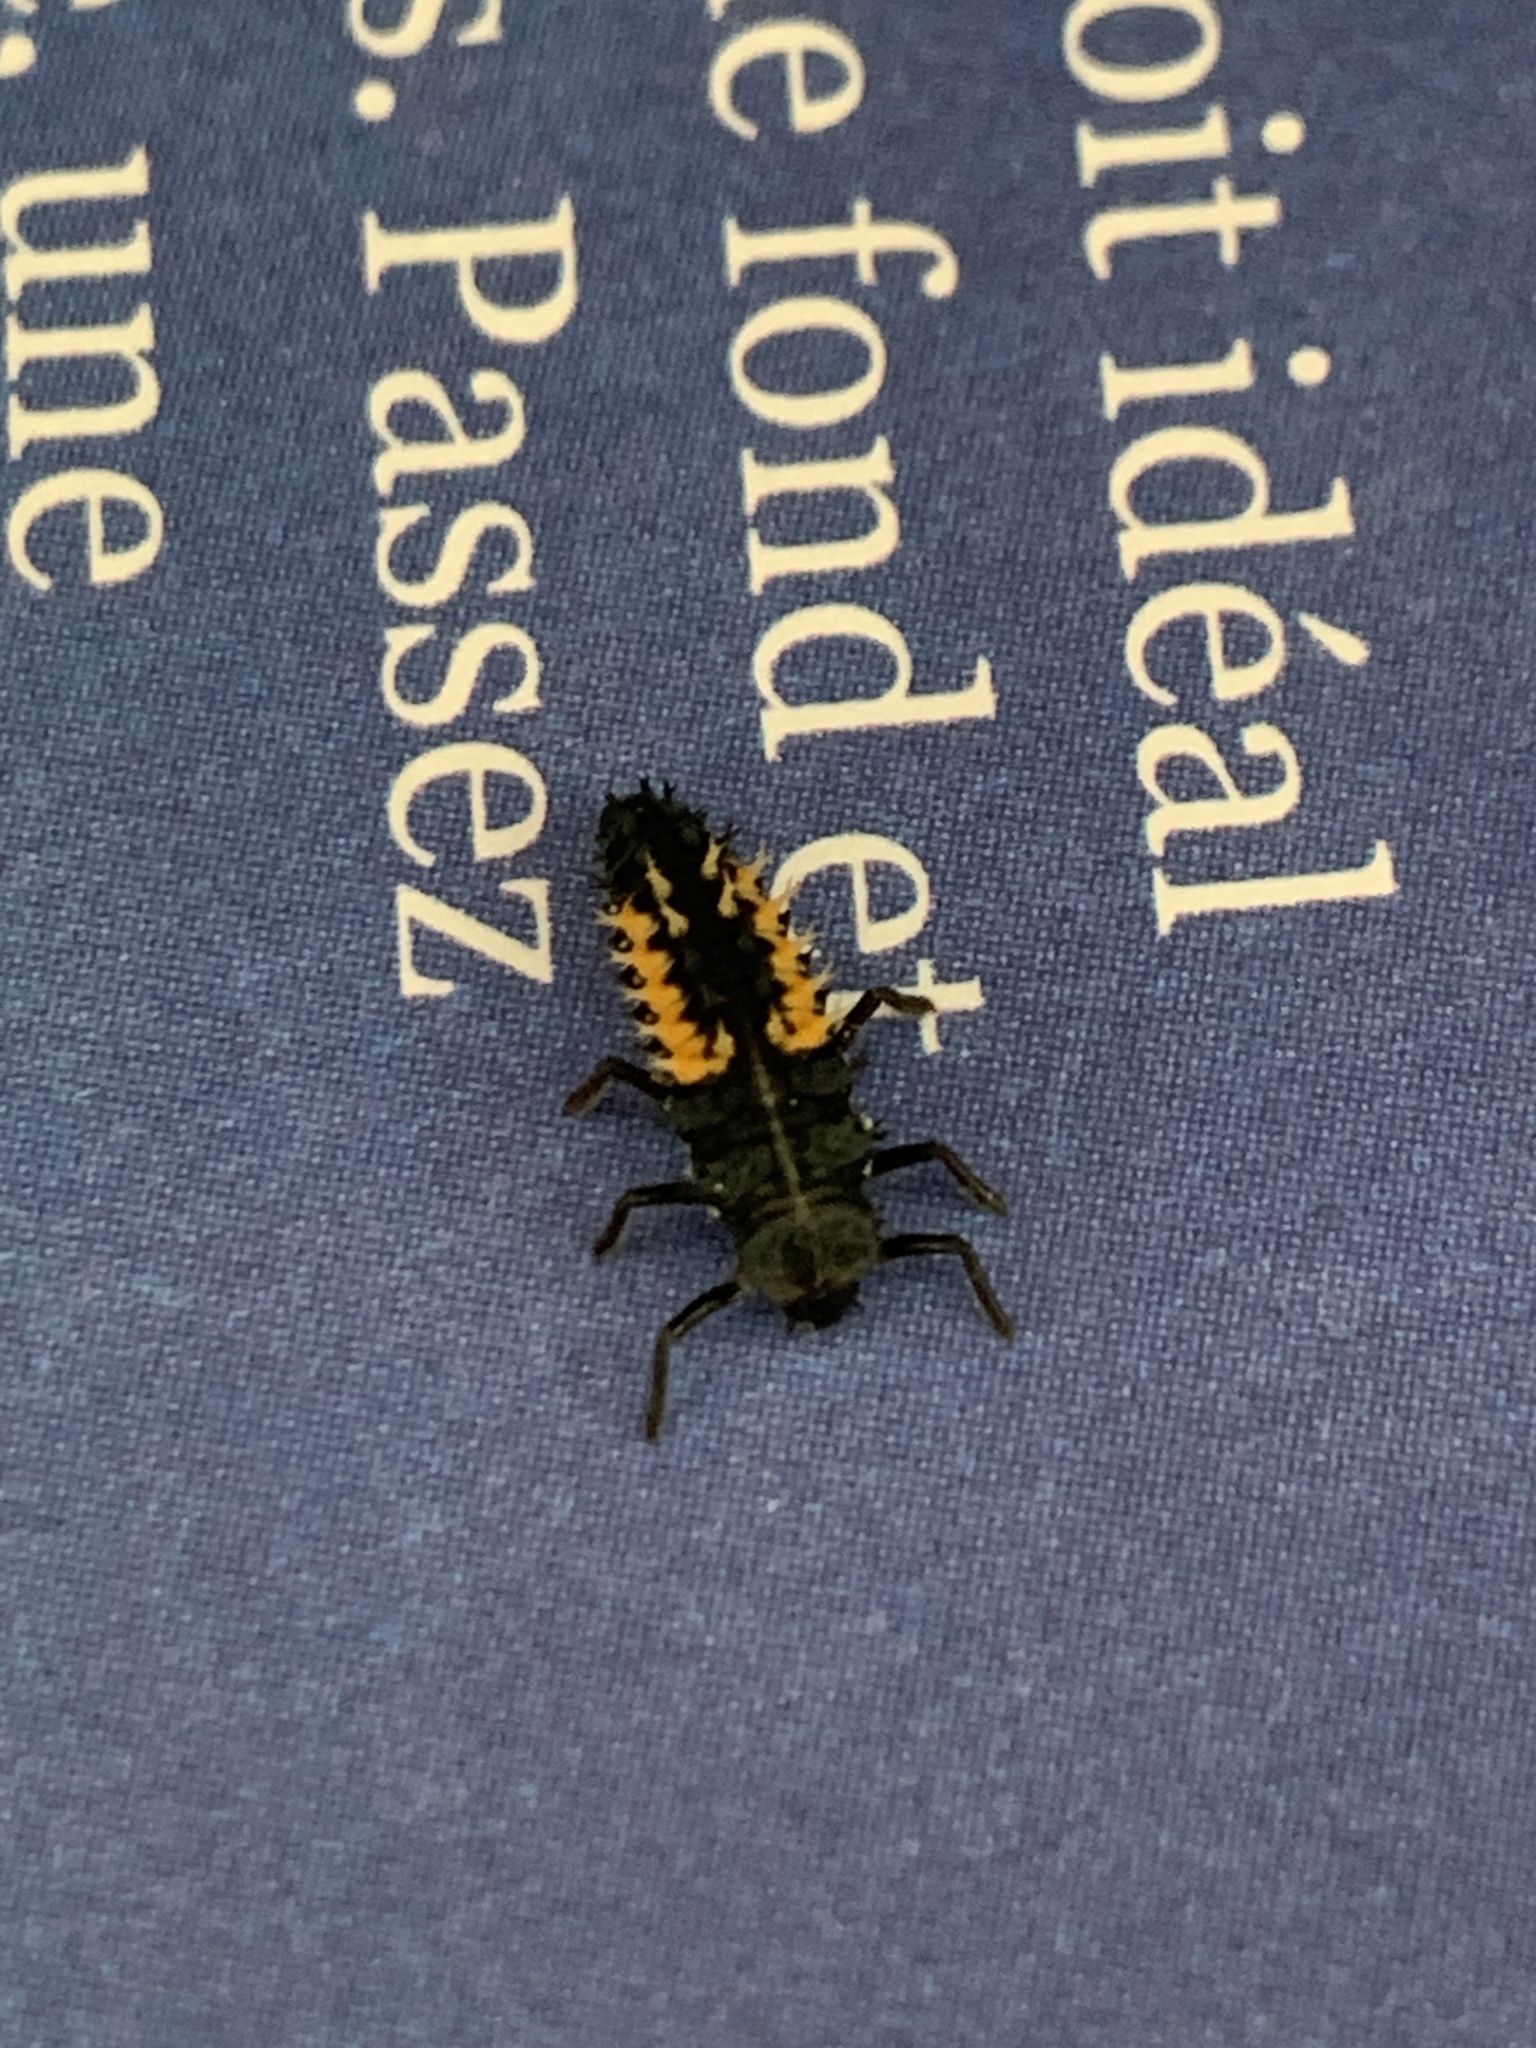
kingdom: Animalia
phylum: Arthropoda
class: Insecta
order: Coleoptera
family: Coccinellidae
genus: Harmonia
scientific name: Harmonia axyridis
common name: Harlequin ladybird
